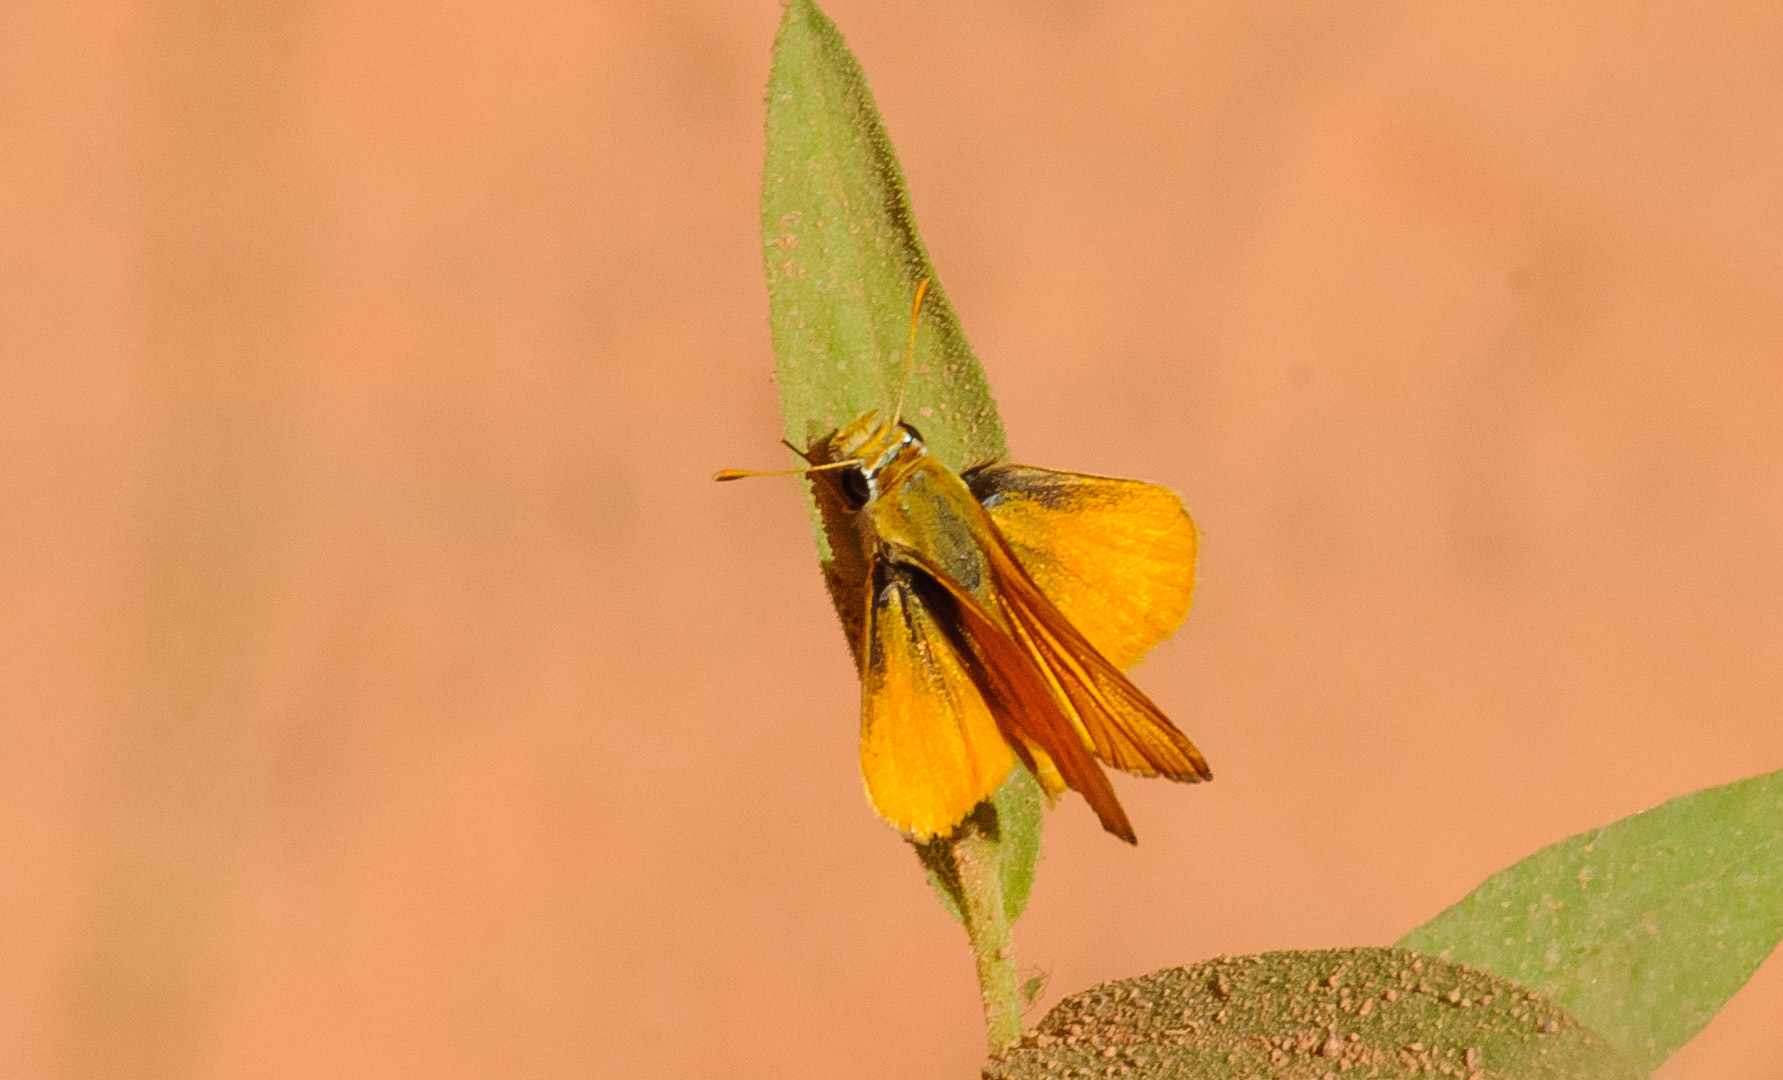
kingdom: Animalia
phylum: Arthropoda
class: Insecta
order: Lepidoptera
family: Hesperiidae
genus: Copaeodes
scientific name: Copaeodes aurantiaca
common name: Orange skipperling
